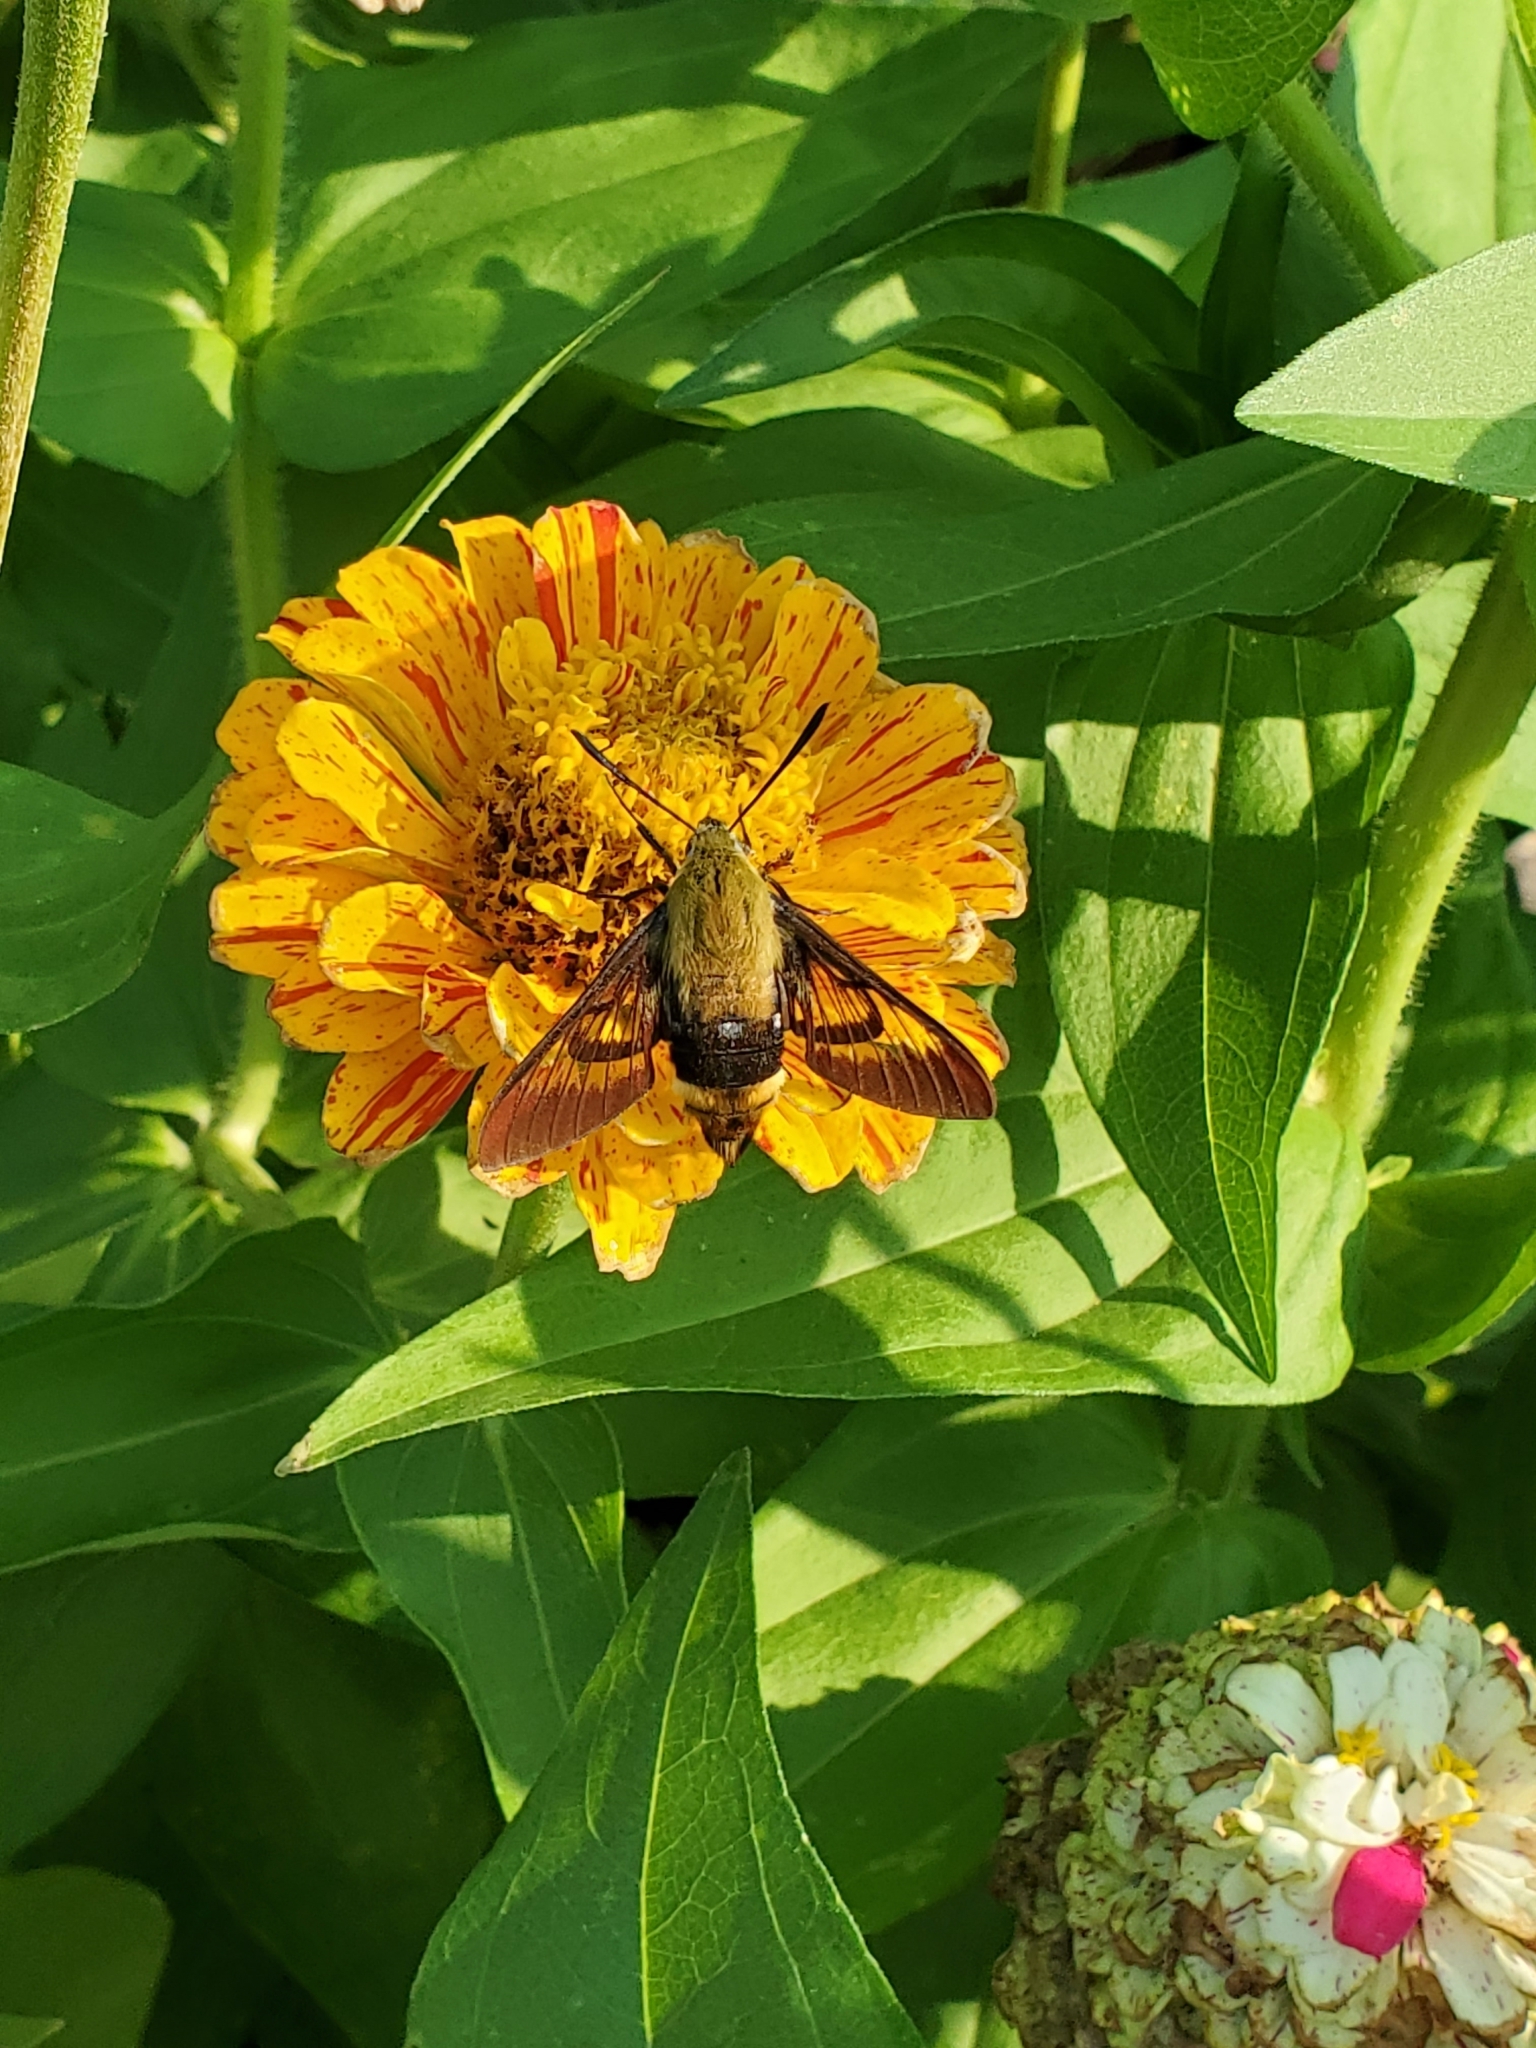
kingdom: Animalia
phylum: Arthropoda
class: Insecta
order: Lepidoptera
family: Sphingidae
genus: Hemaris
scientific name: Hemaris diffinis
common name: Bumblebee moth
